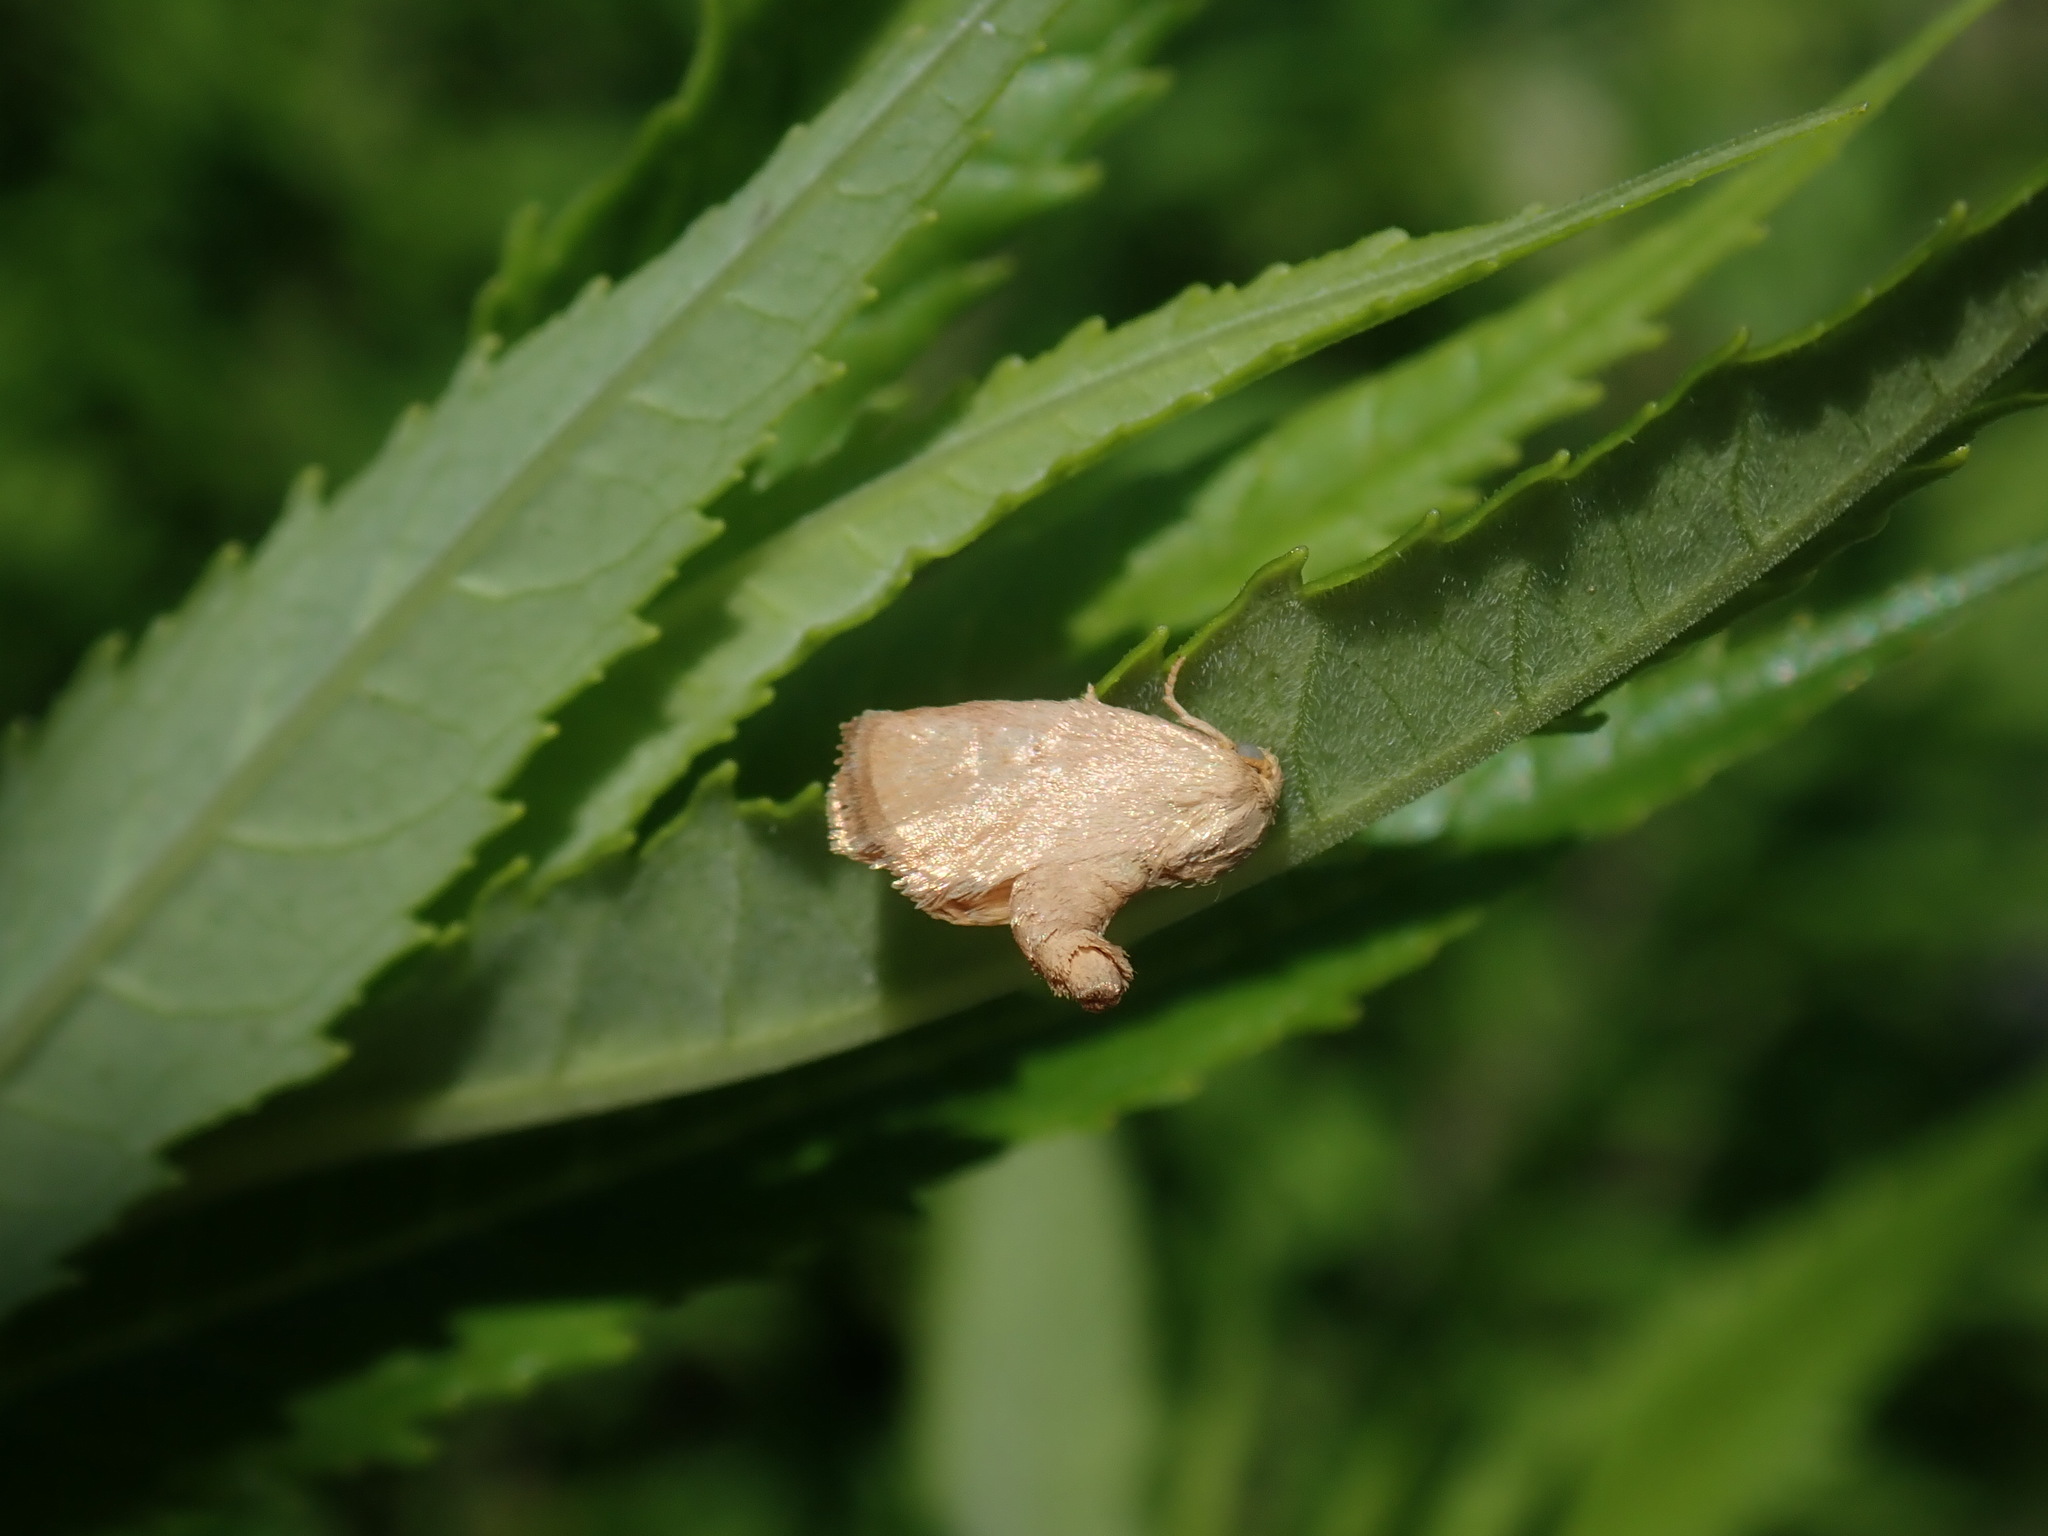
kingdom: Animalia
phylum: Arthropoda
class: Insecta
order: Lepidoptera
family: Limacodidae
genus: Tortricidia
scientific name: Tortricidia pallida
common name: Red-crossed button slug moth
